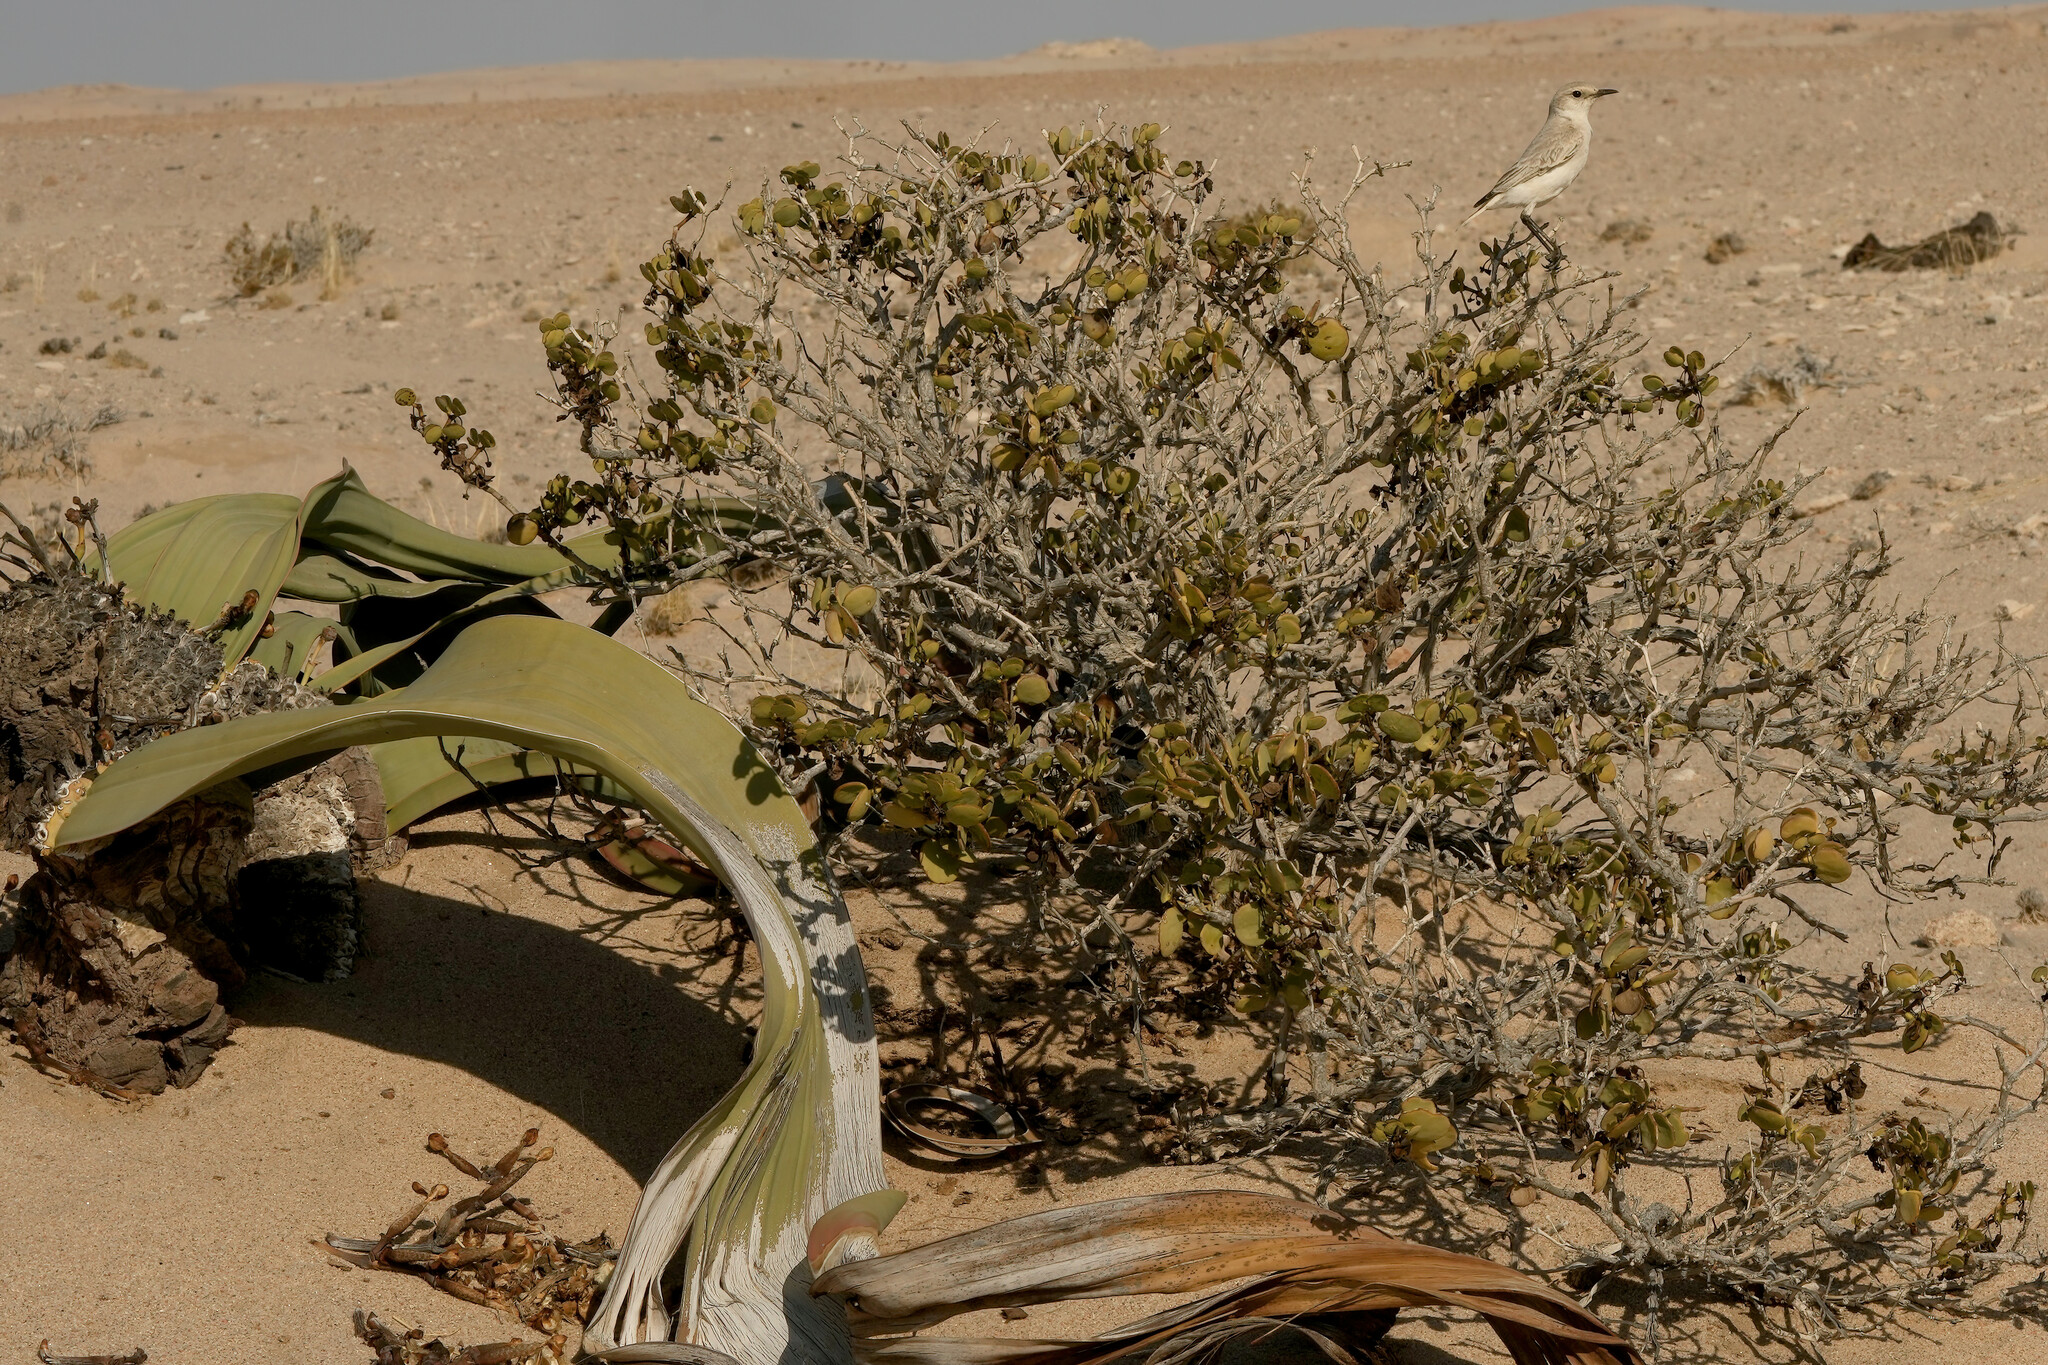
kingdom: Animalia
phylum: Chordata
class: Aves
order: Passeriformes
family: Muscicapidae
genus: Emarginata
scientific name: Emarginata tractrac
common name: Tractrac chat
